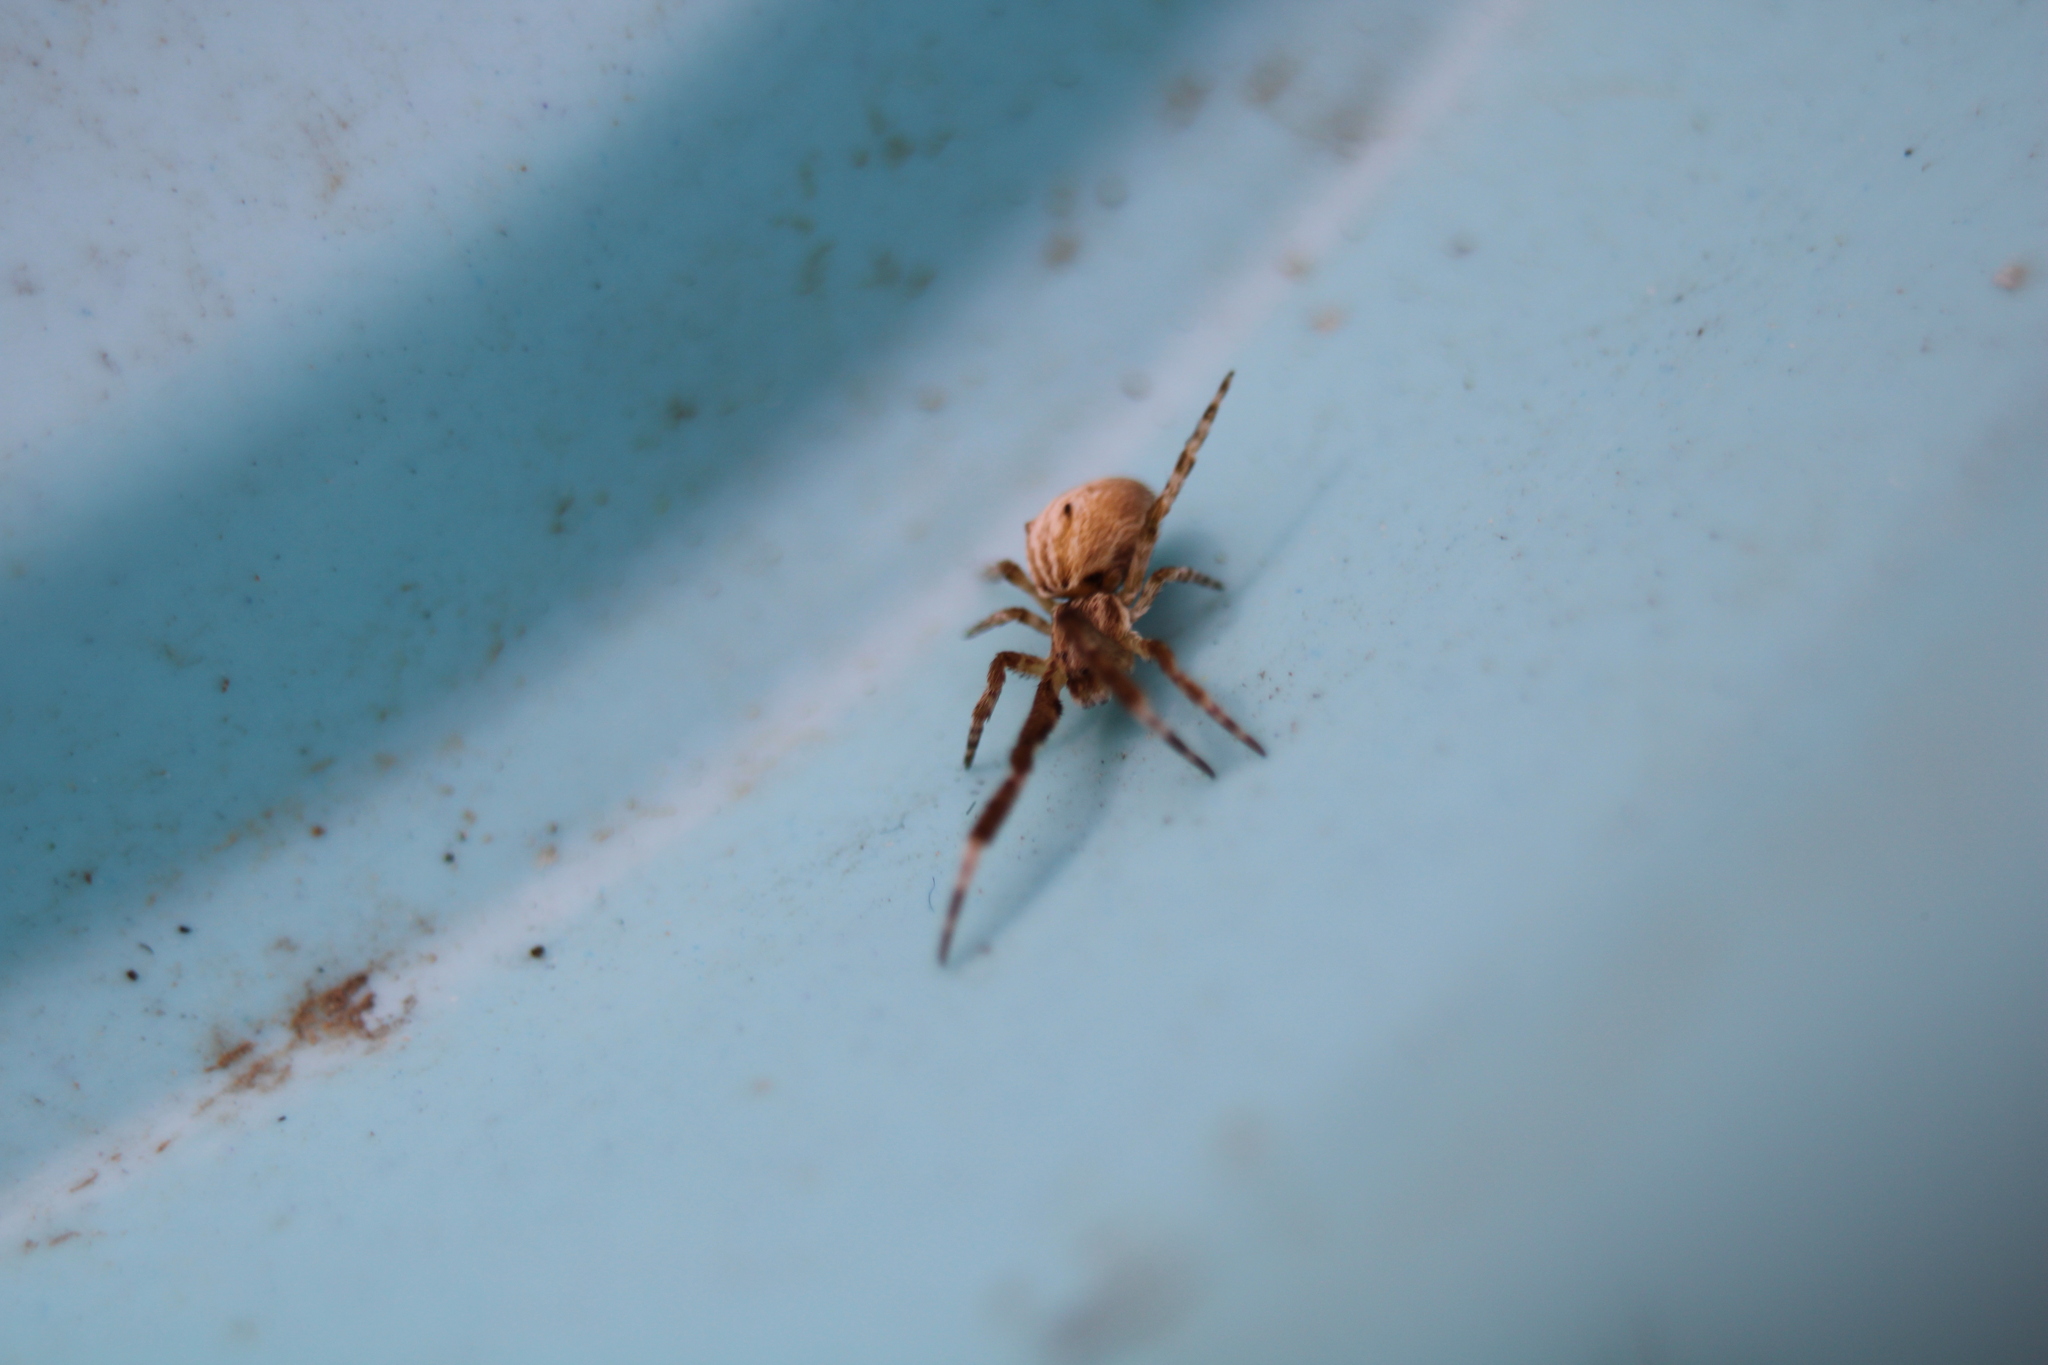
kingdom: Animalia
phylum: Arthropoda
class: Arachnida
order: Araneae
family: Uloboridae
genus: Uloborus
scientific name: Uloborus glomosus
